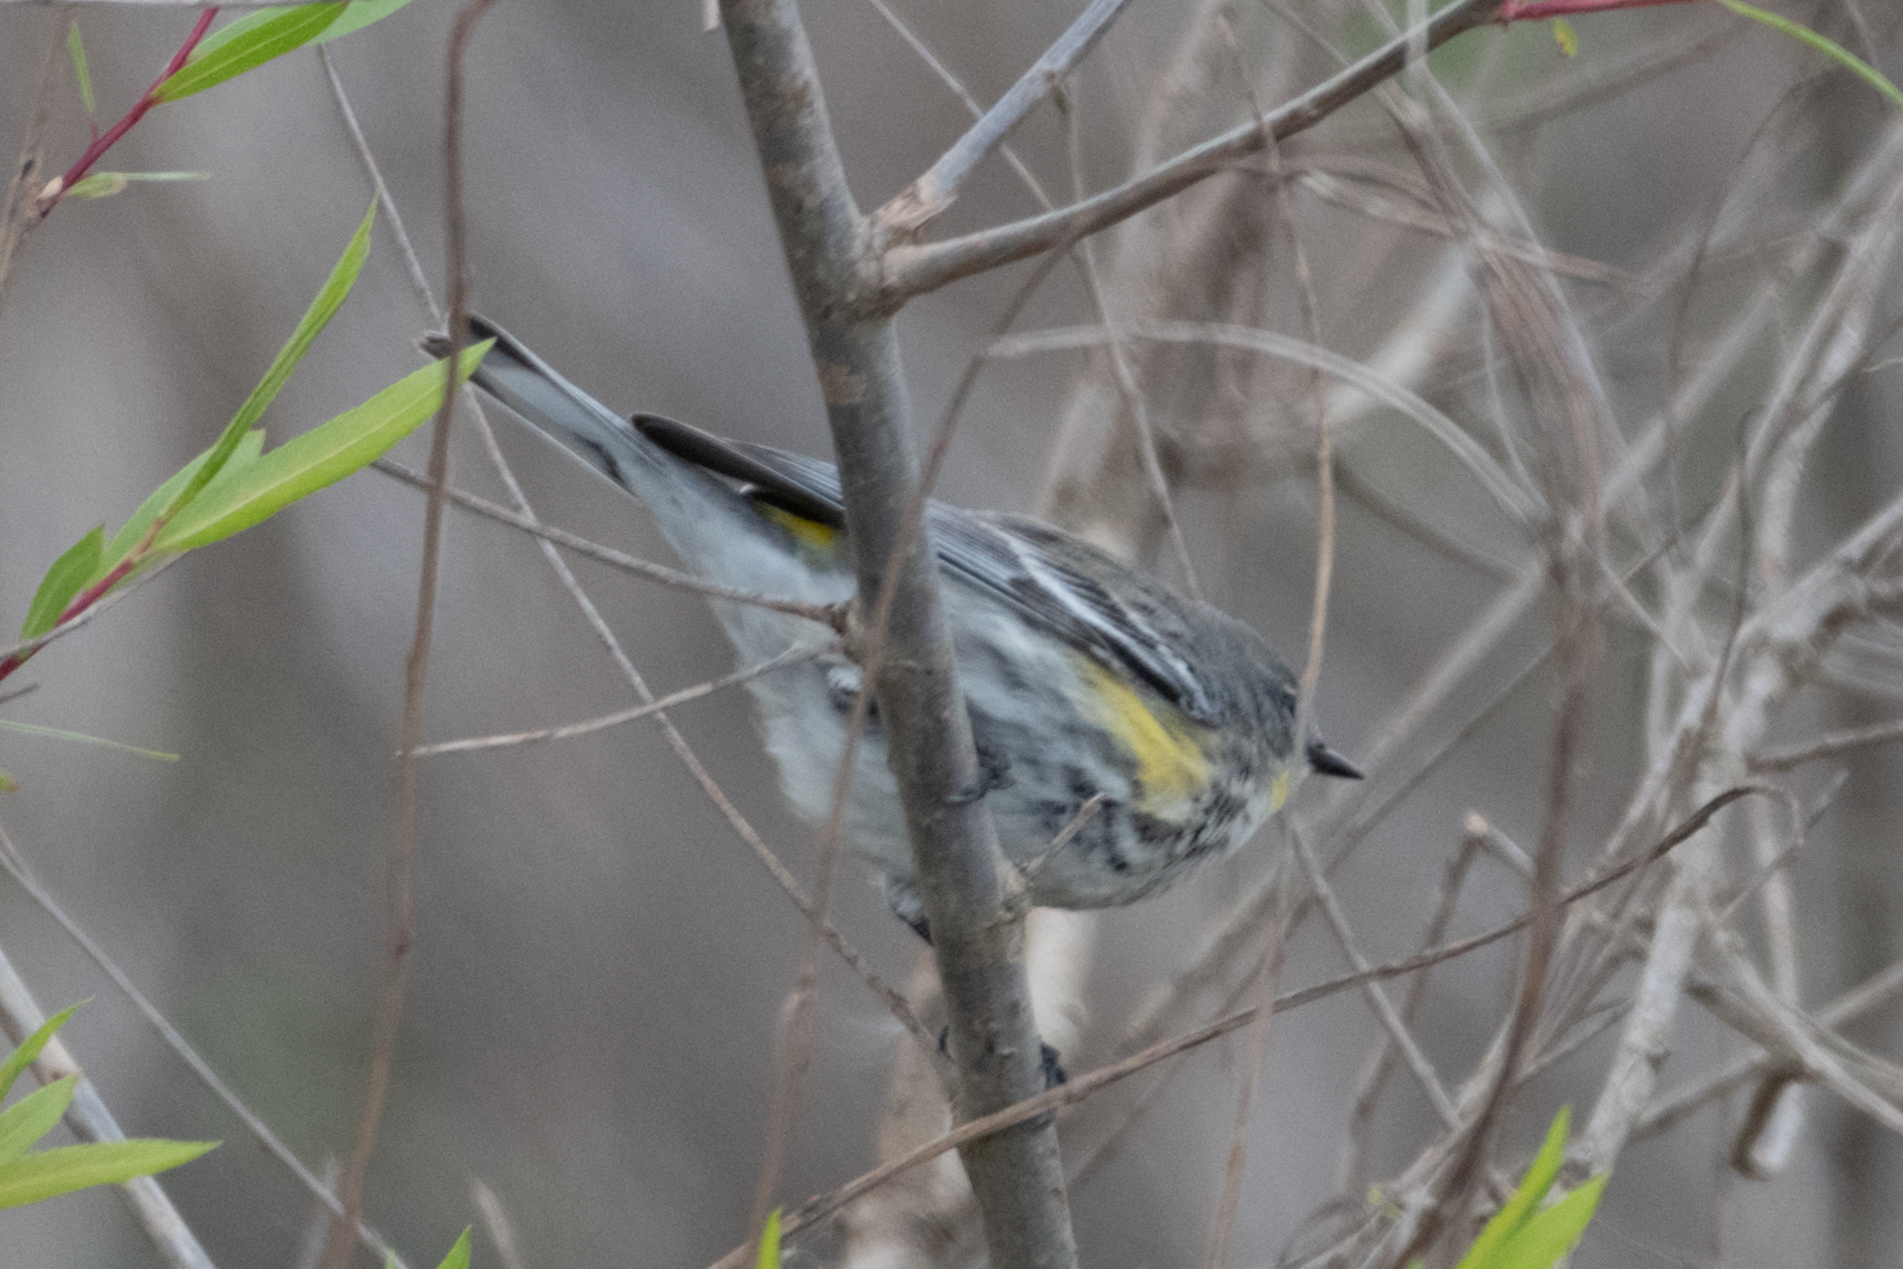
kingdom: Animalia
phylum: Chordata
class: Aves
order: Passeriformes
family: Parulidae
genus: Setophaga
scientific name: Setophaga coronata
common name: Myrtle warbler
